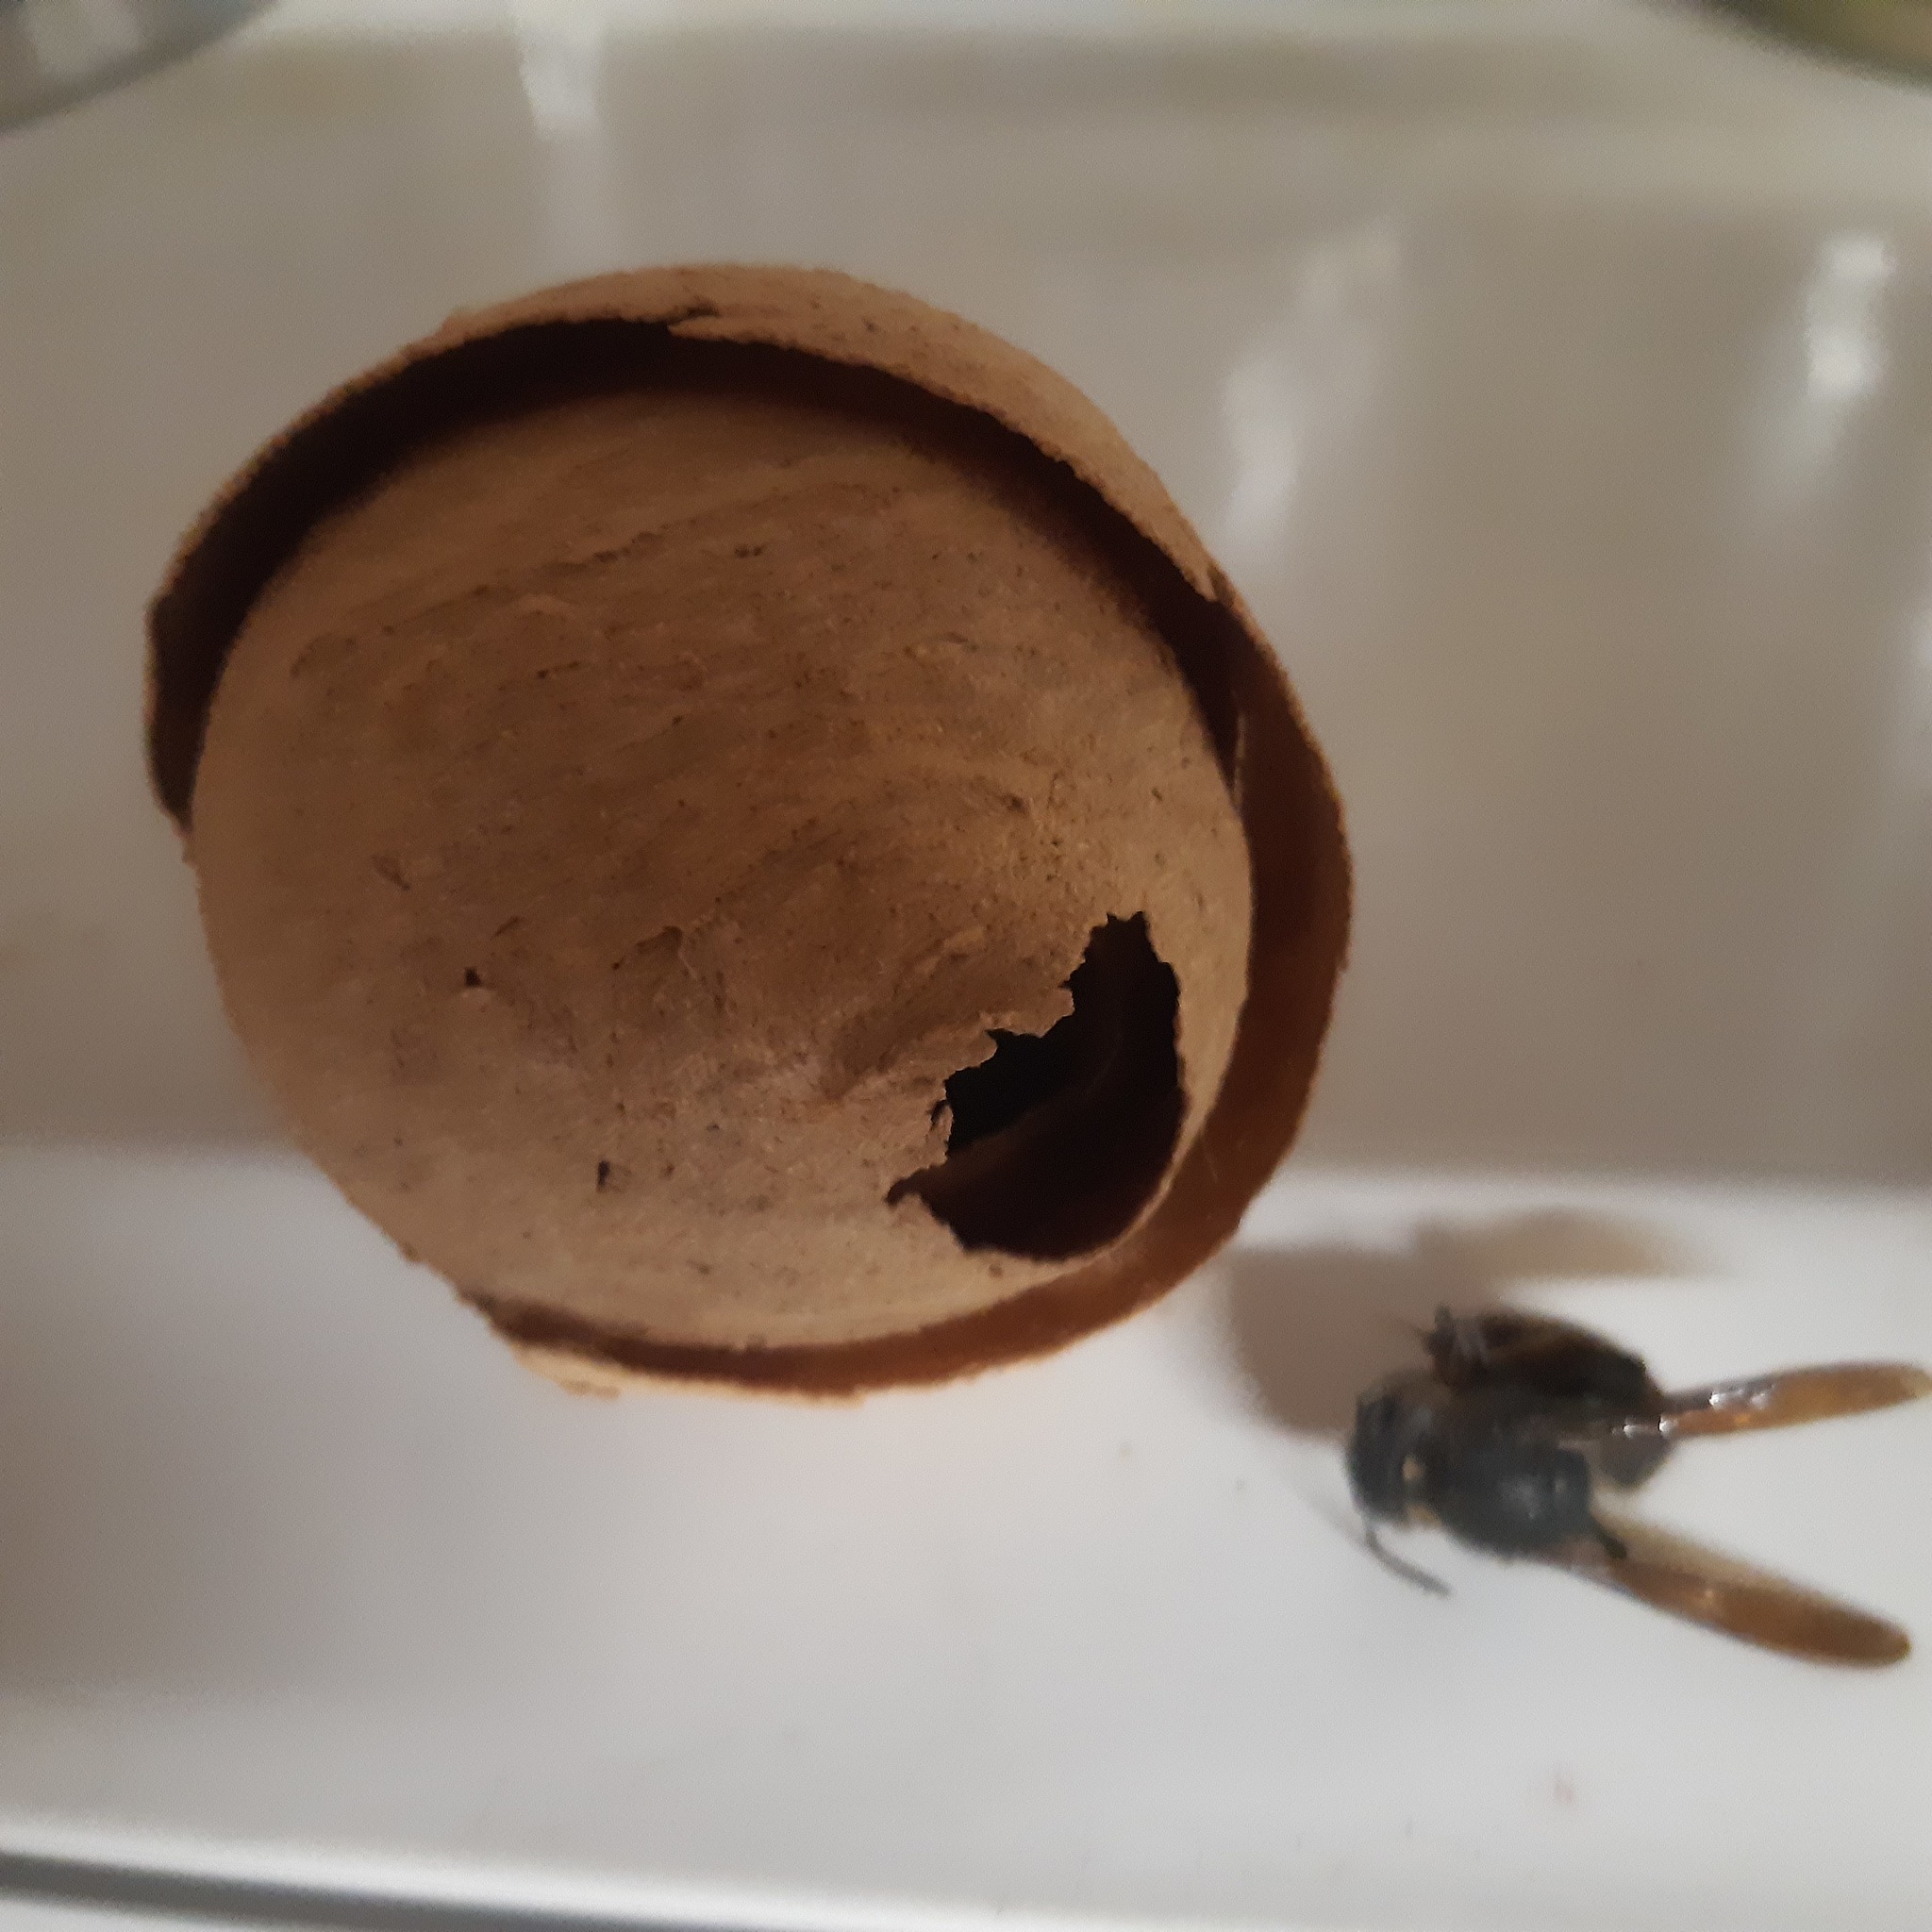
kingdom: Animalia
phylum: Arthropoda
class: Insecta
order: Hymenoptera
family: Vespidae
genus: Vespa
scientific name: Vespa velutina
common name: Asian hornet
